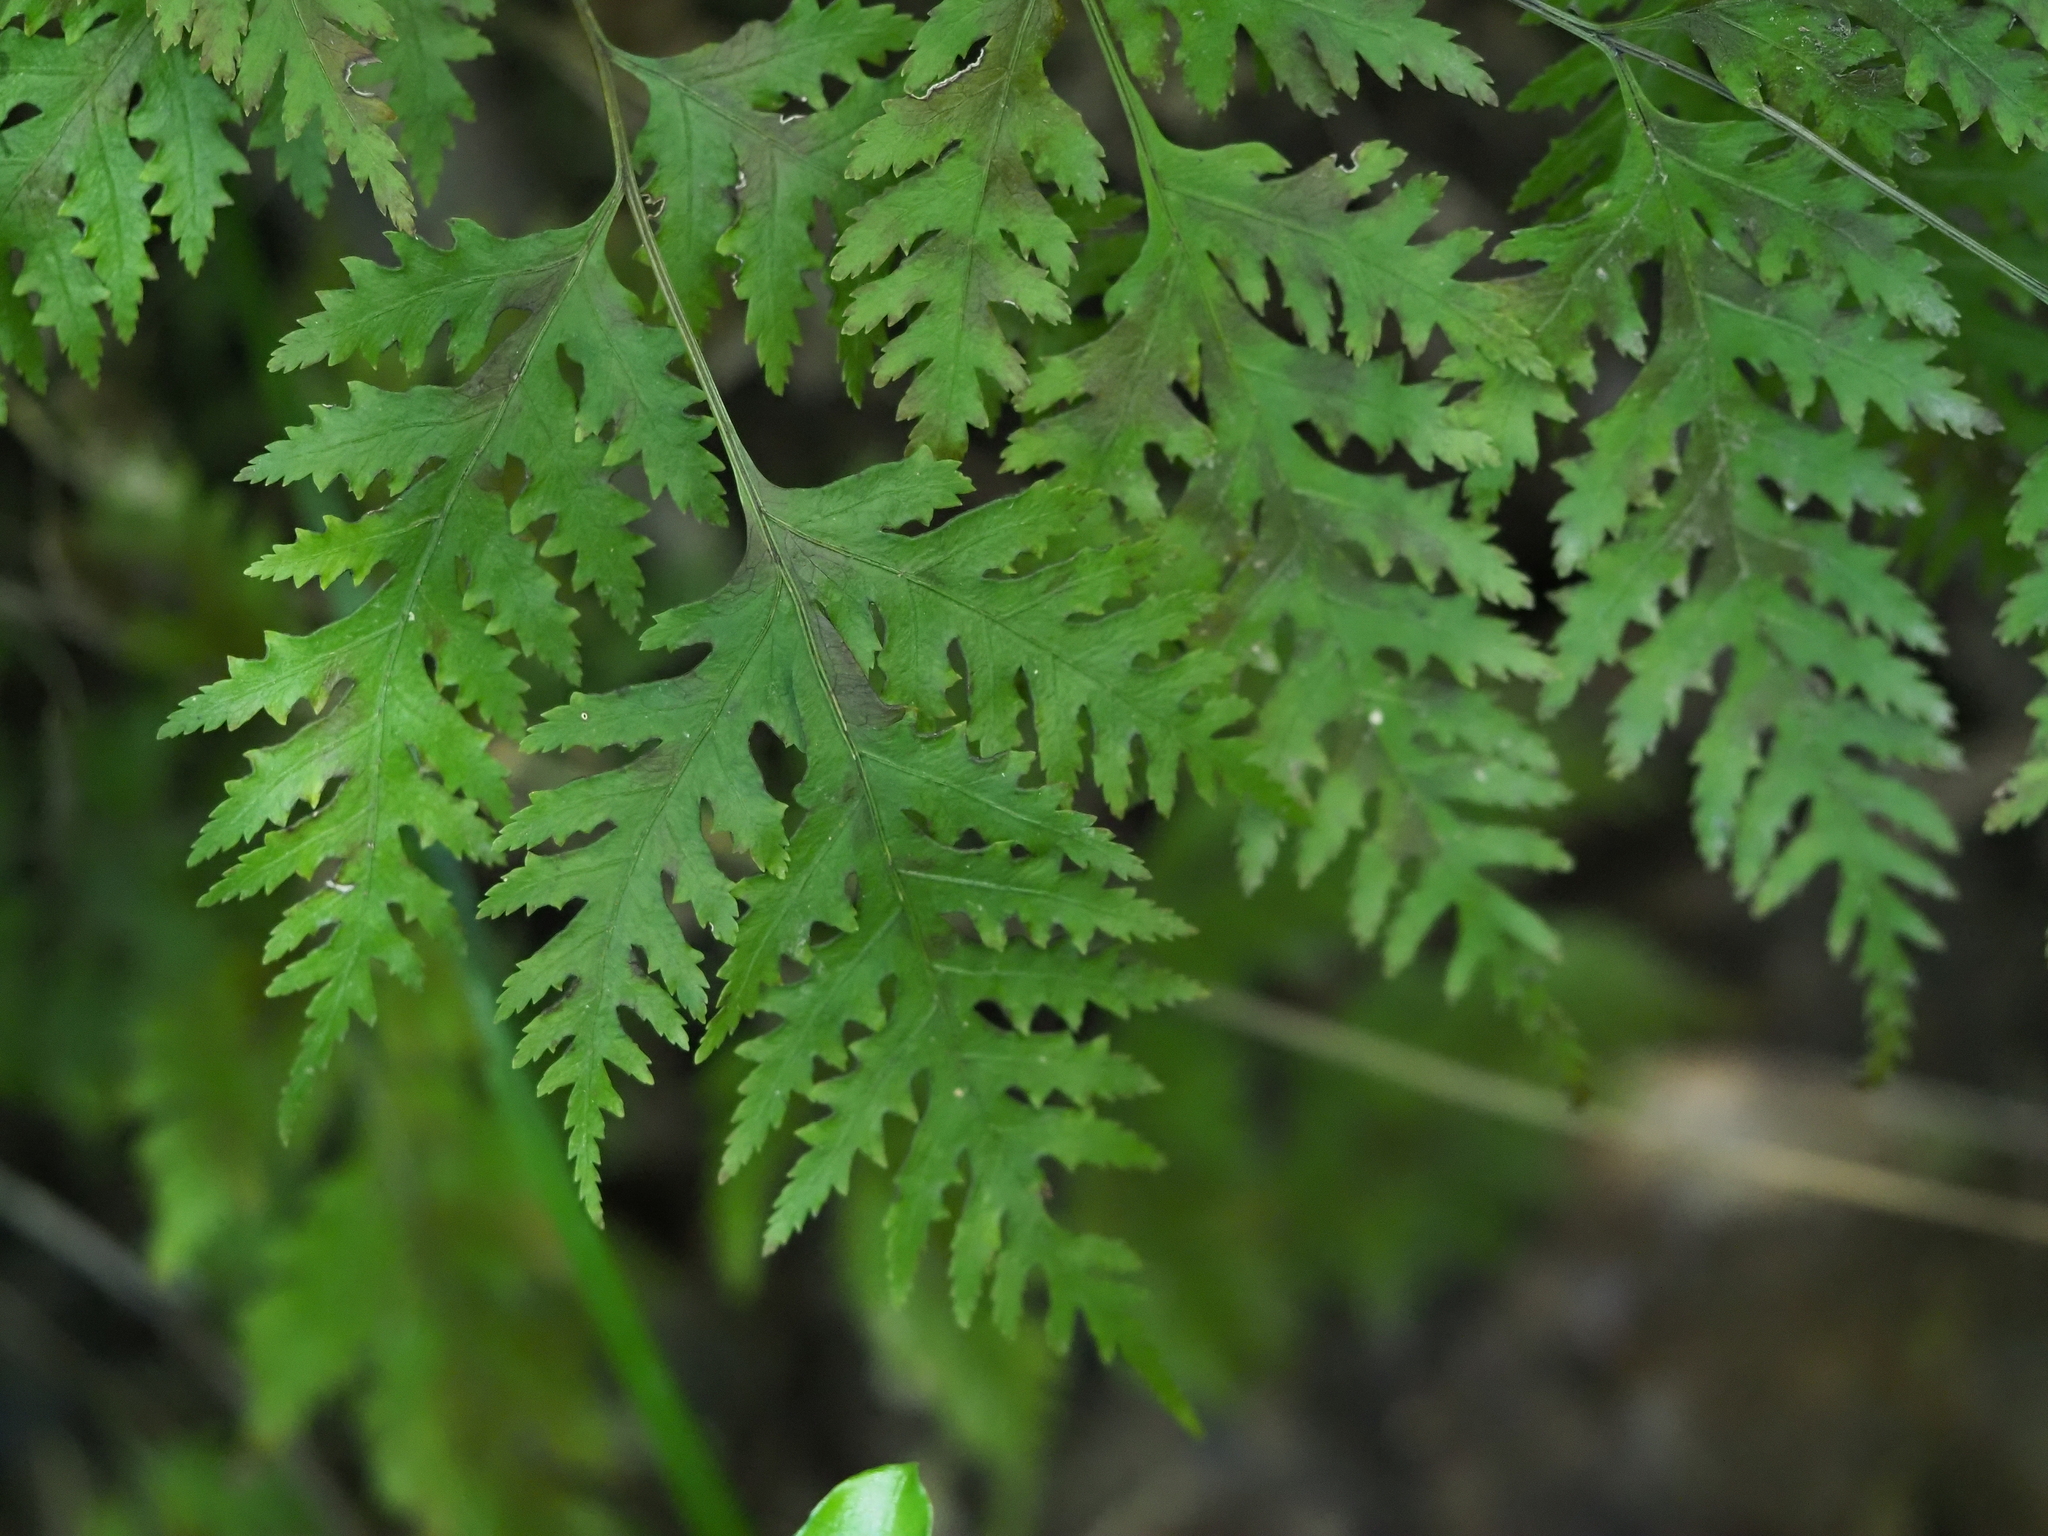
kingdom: Plantae
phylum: Tracheophyta
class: Polypodiopsida
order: Polypodiales
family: Pteridaceae
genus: Pteris
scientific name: Pteris macilenta
